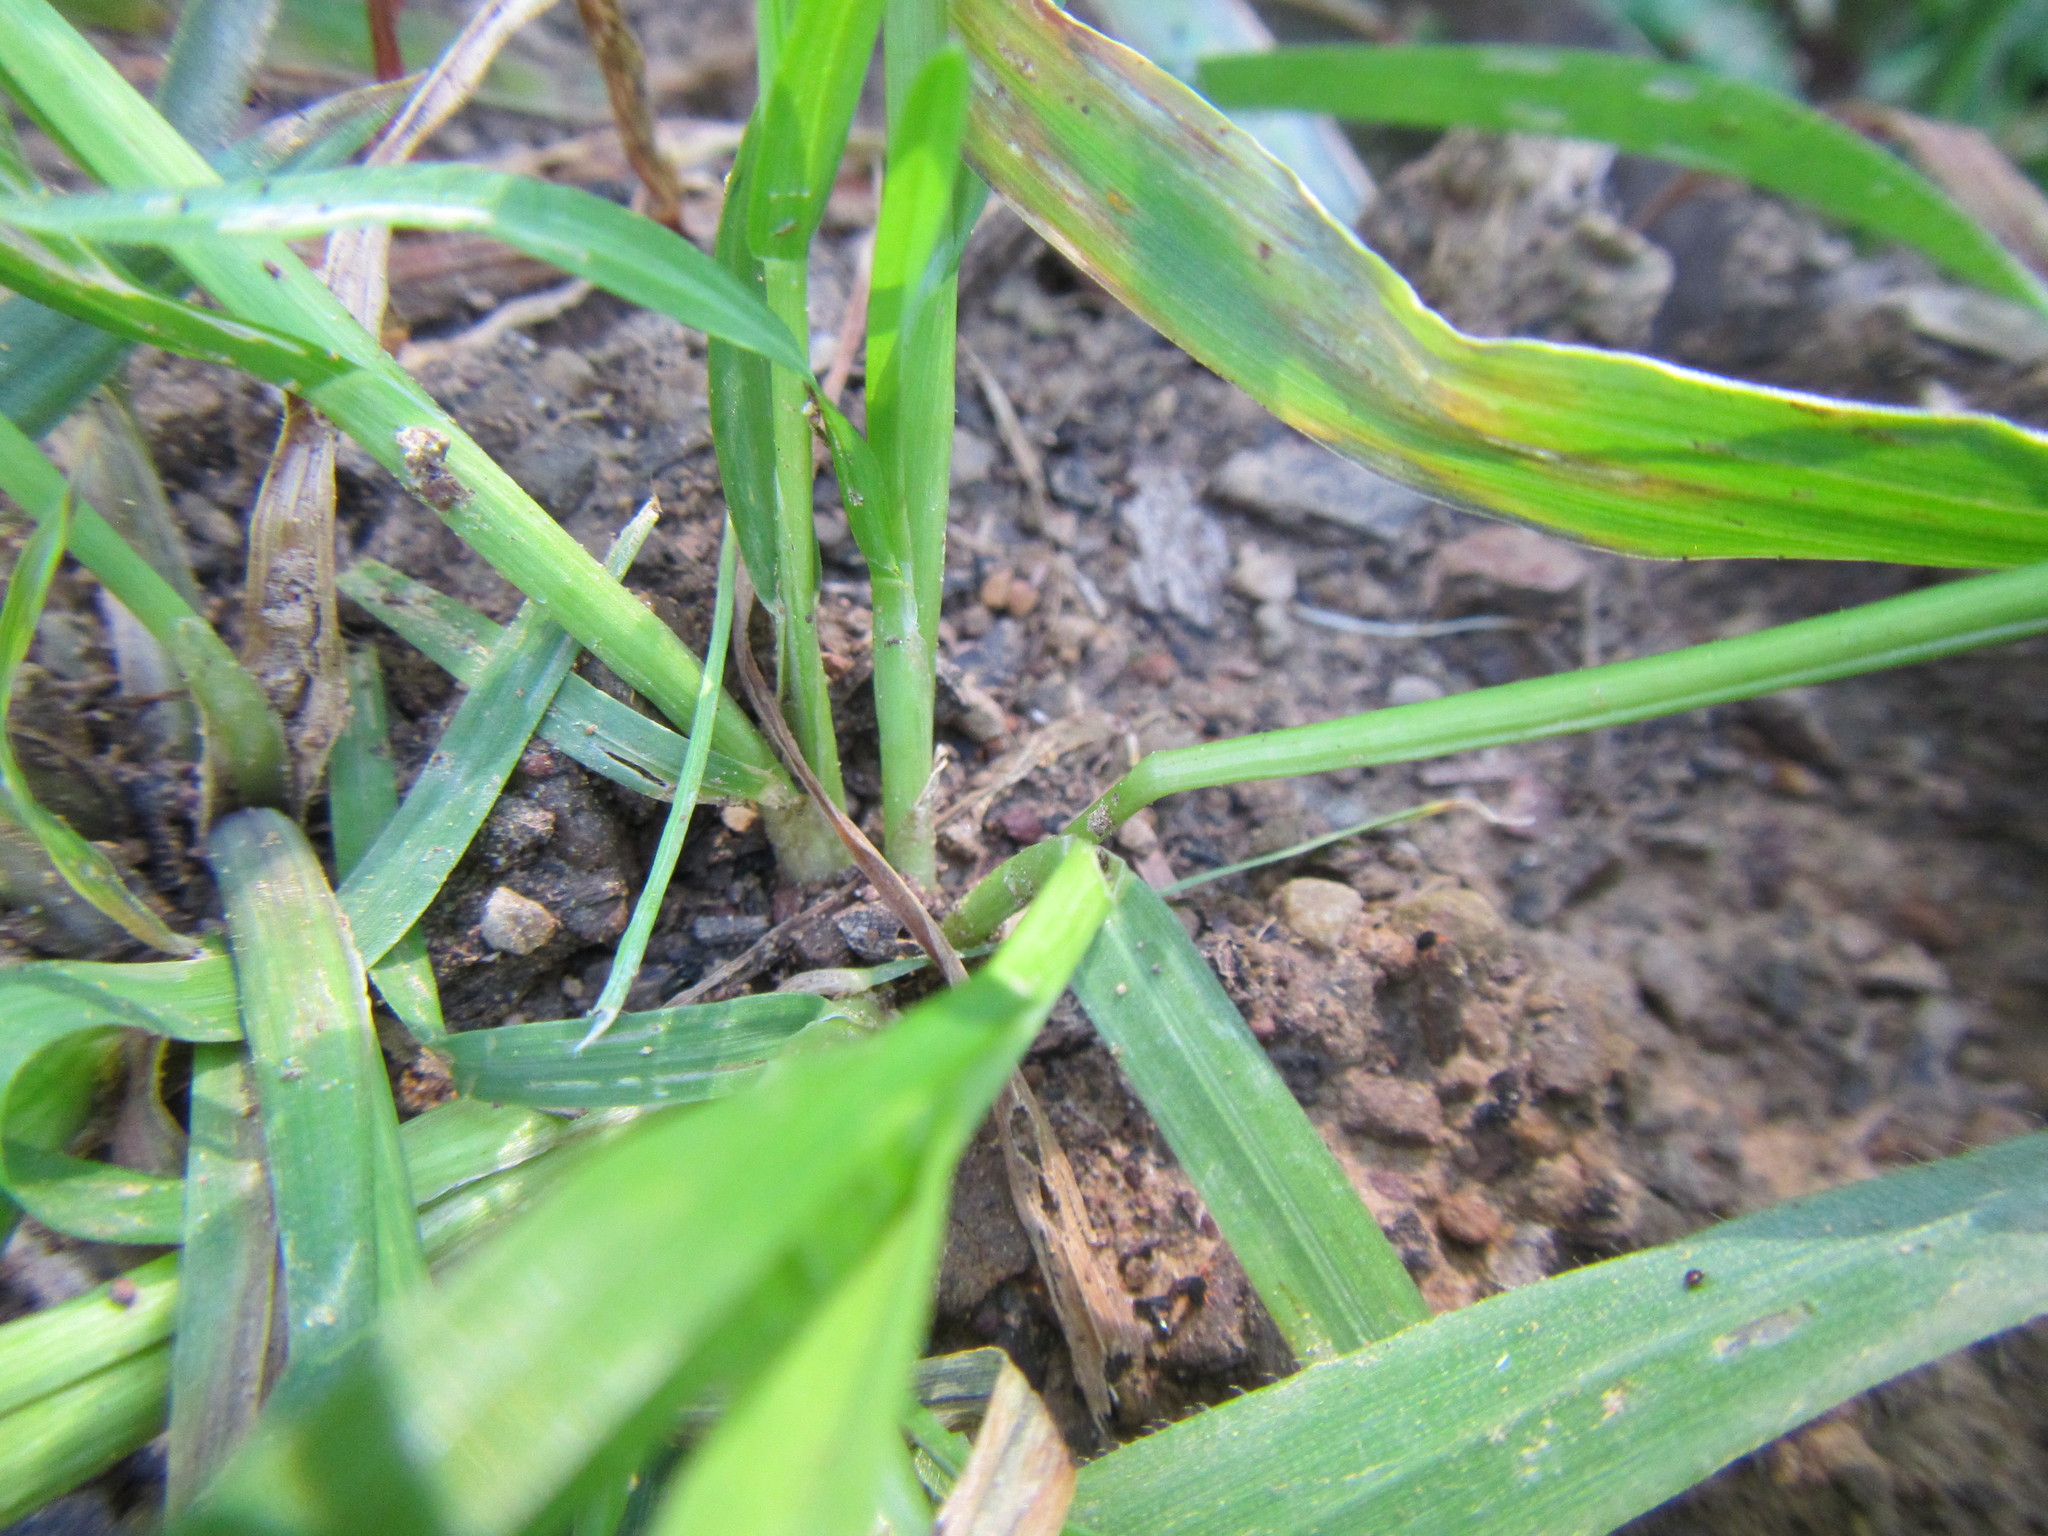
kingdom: Plantae
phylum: Tracheophyta
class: Liliopsida
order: Poales
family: Poaceae
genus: Poa
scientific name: Poa annua
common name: Annual bluegrass
